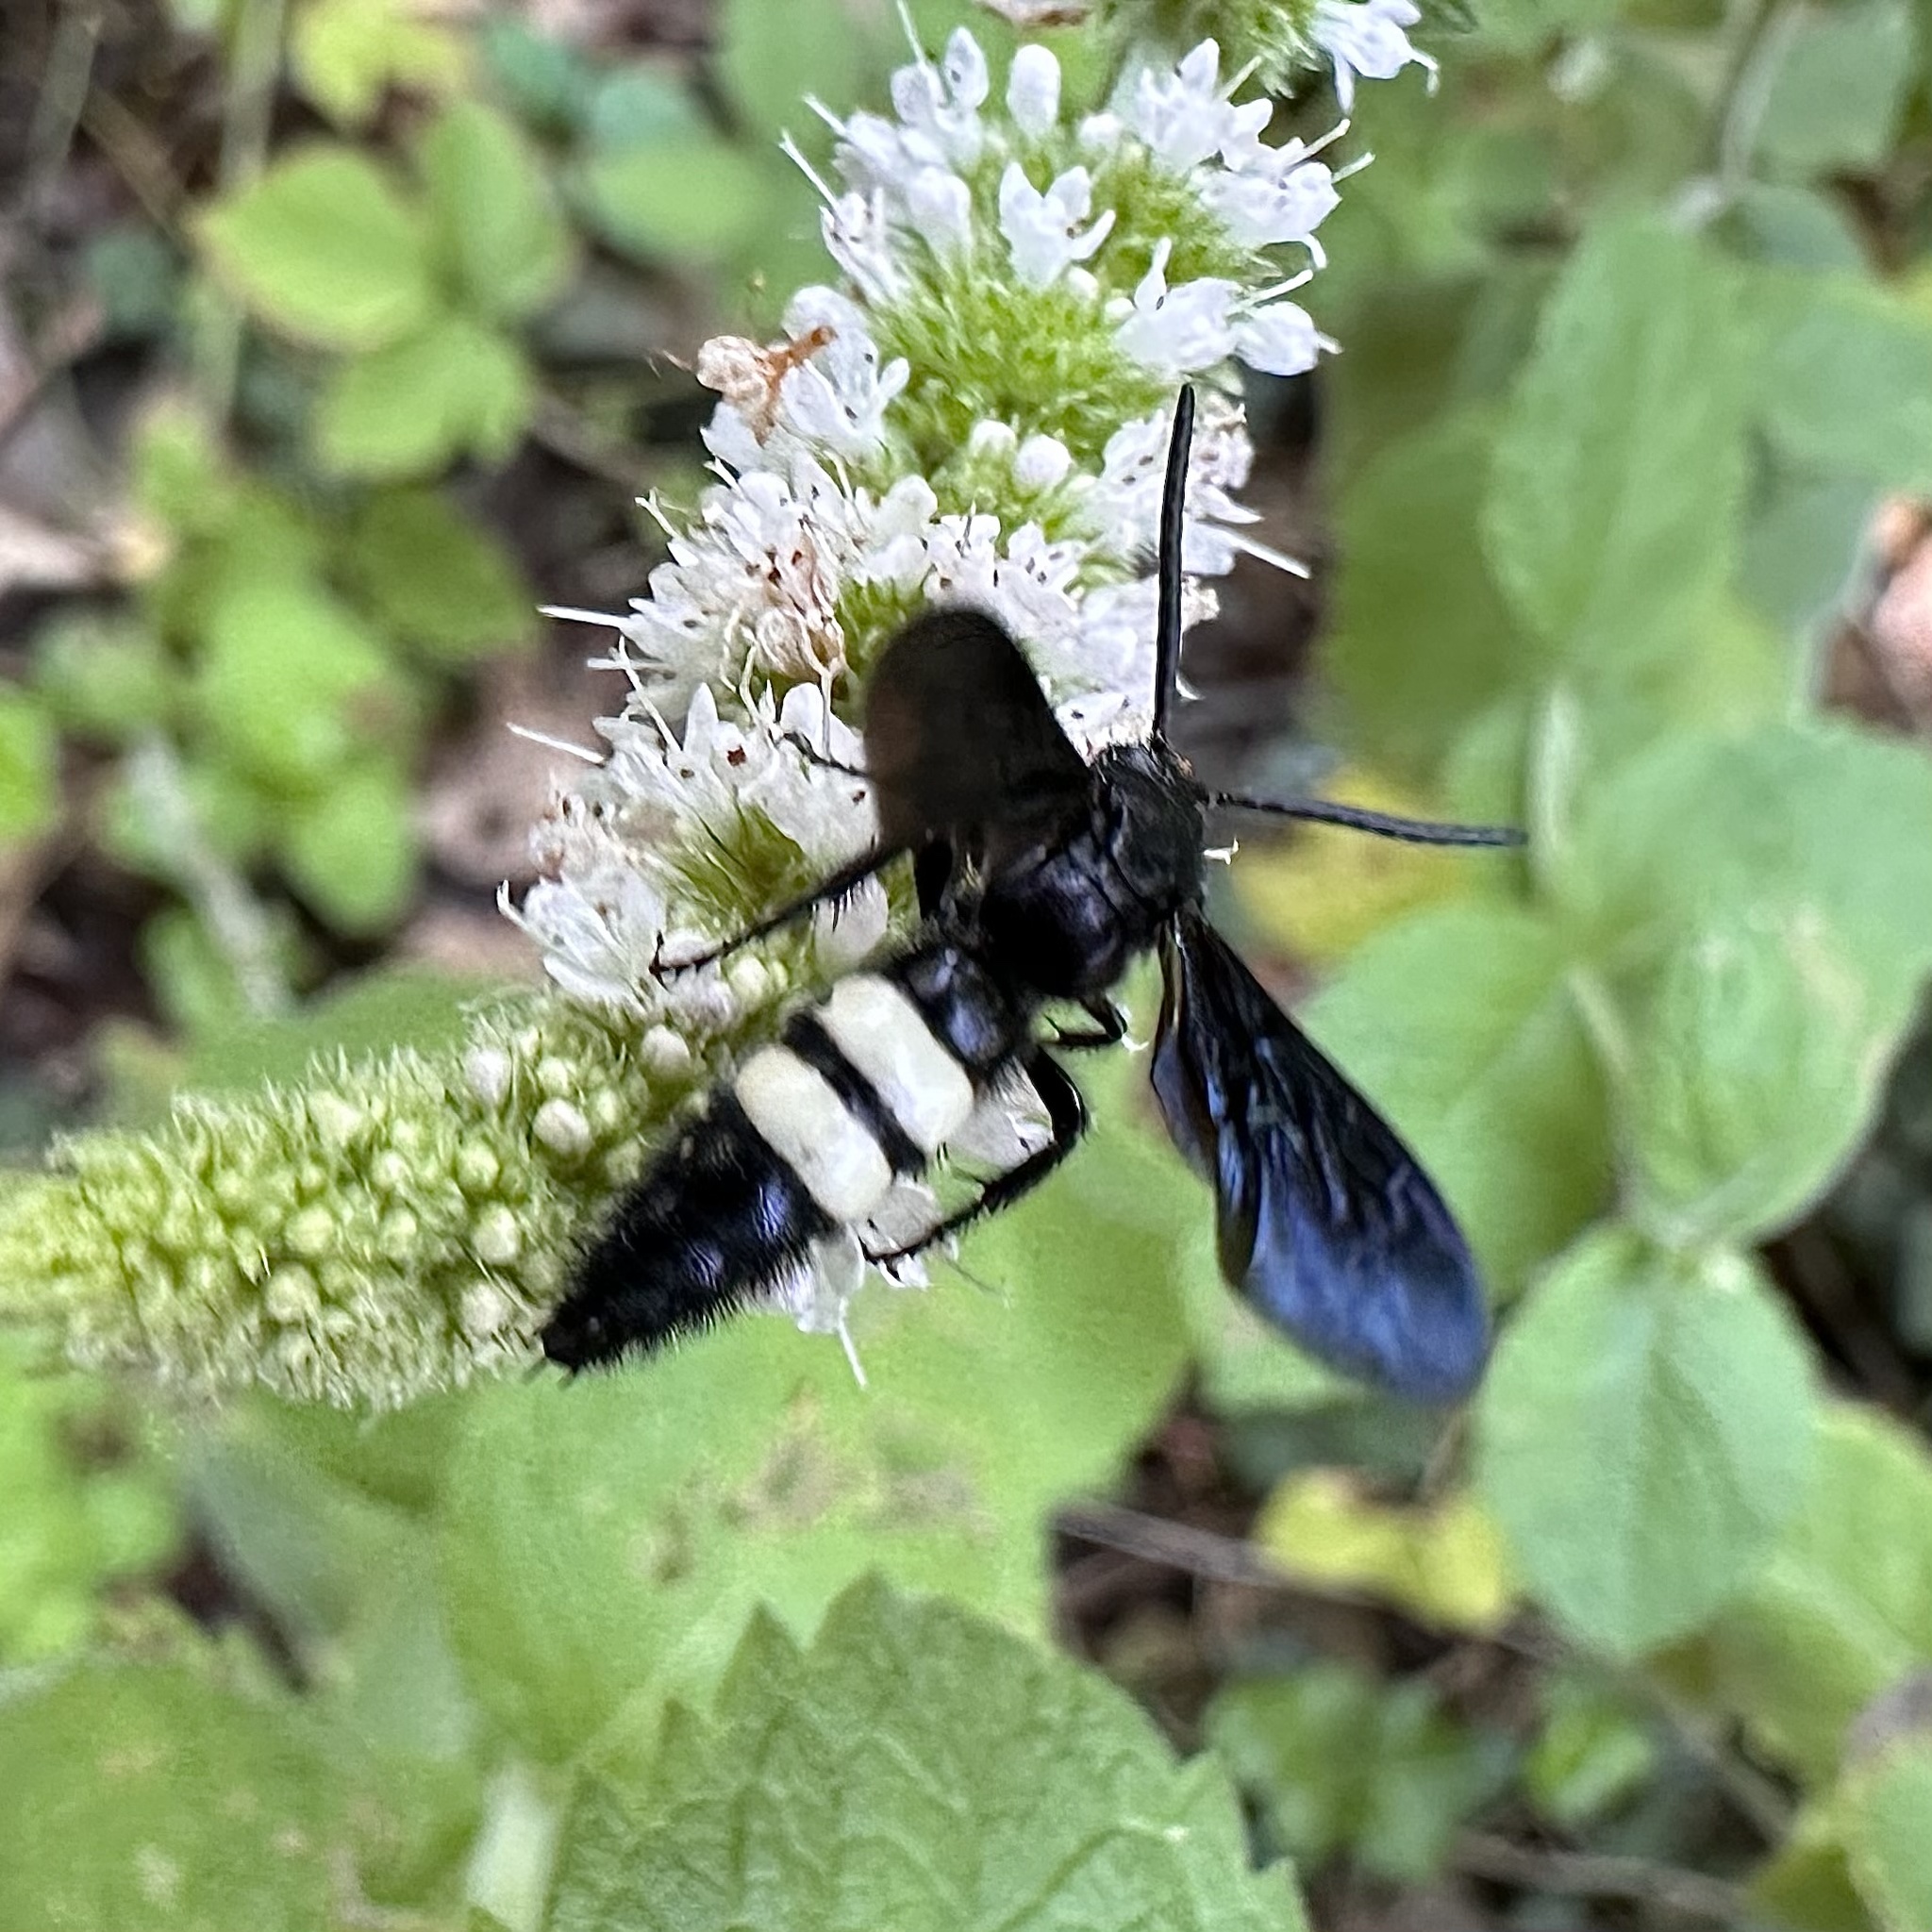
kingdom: Animalia
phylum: Arthropoda
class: Insecta
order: Hymenoptera
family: Scoliidae
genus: Scolia
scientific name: Scolia bicincta
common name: Double-banded scoliid wasp
